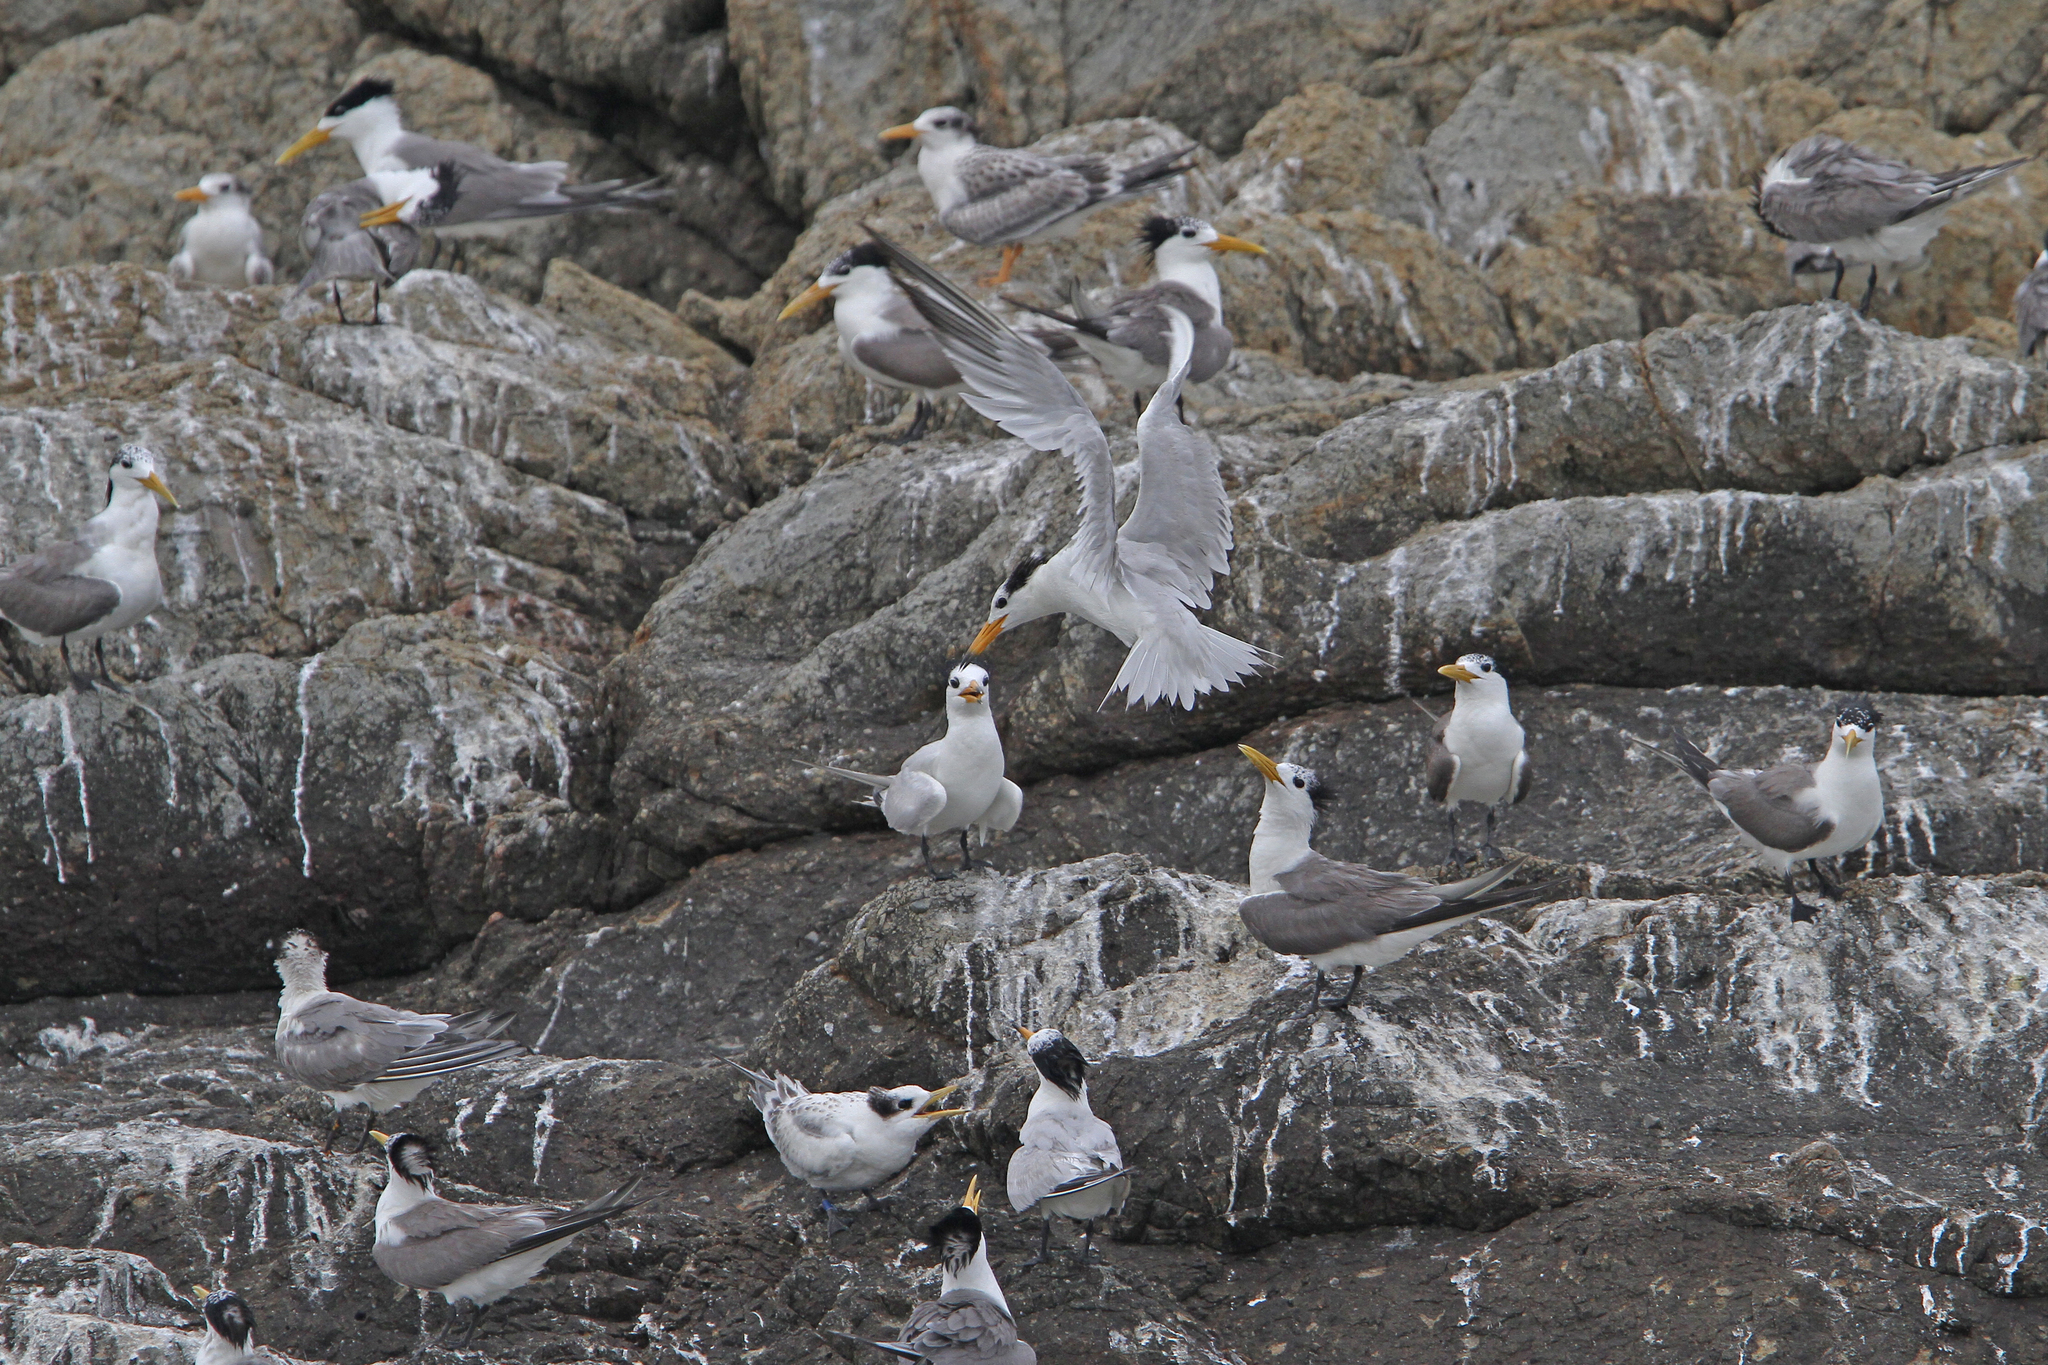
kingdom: Animalia
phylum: Chordata
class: Aves
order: Charadriiformes
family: Laridae
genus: Thalasseus
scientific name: Thalasseus bernsteini
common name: Chinese crested tern
